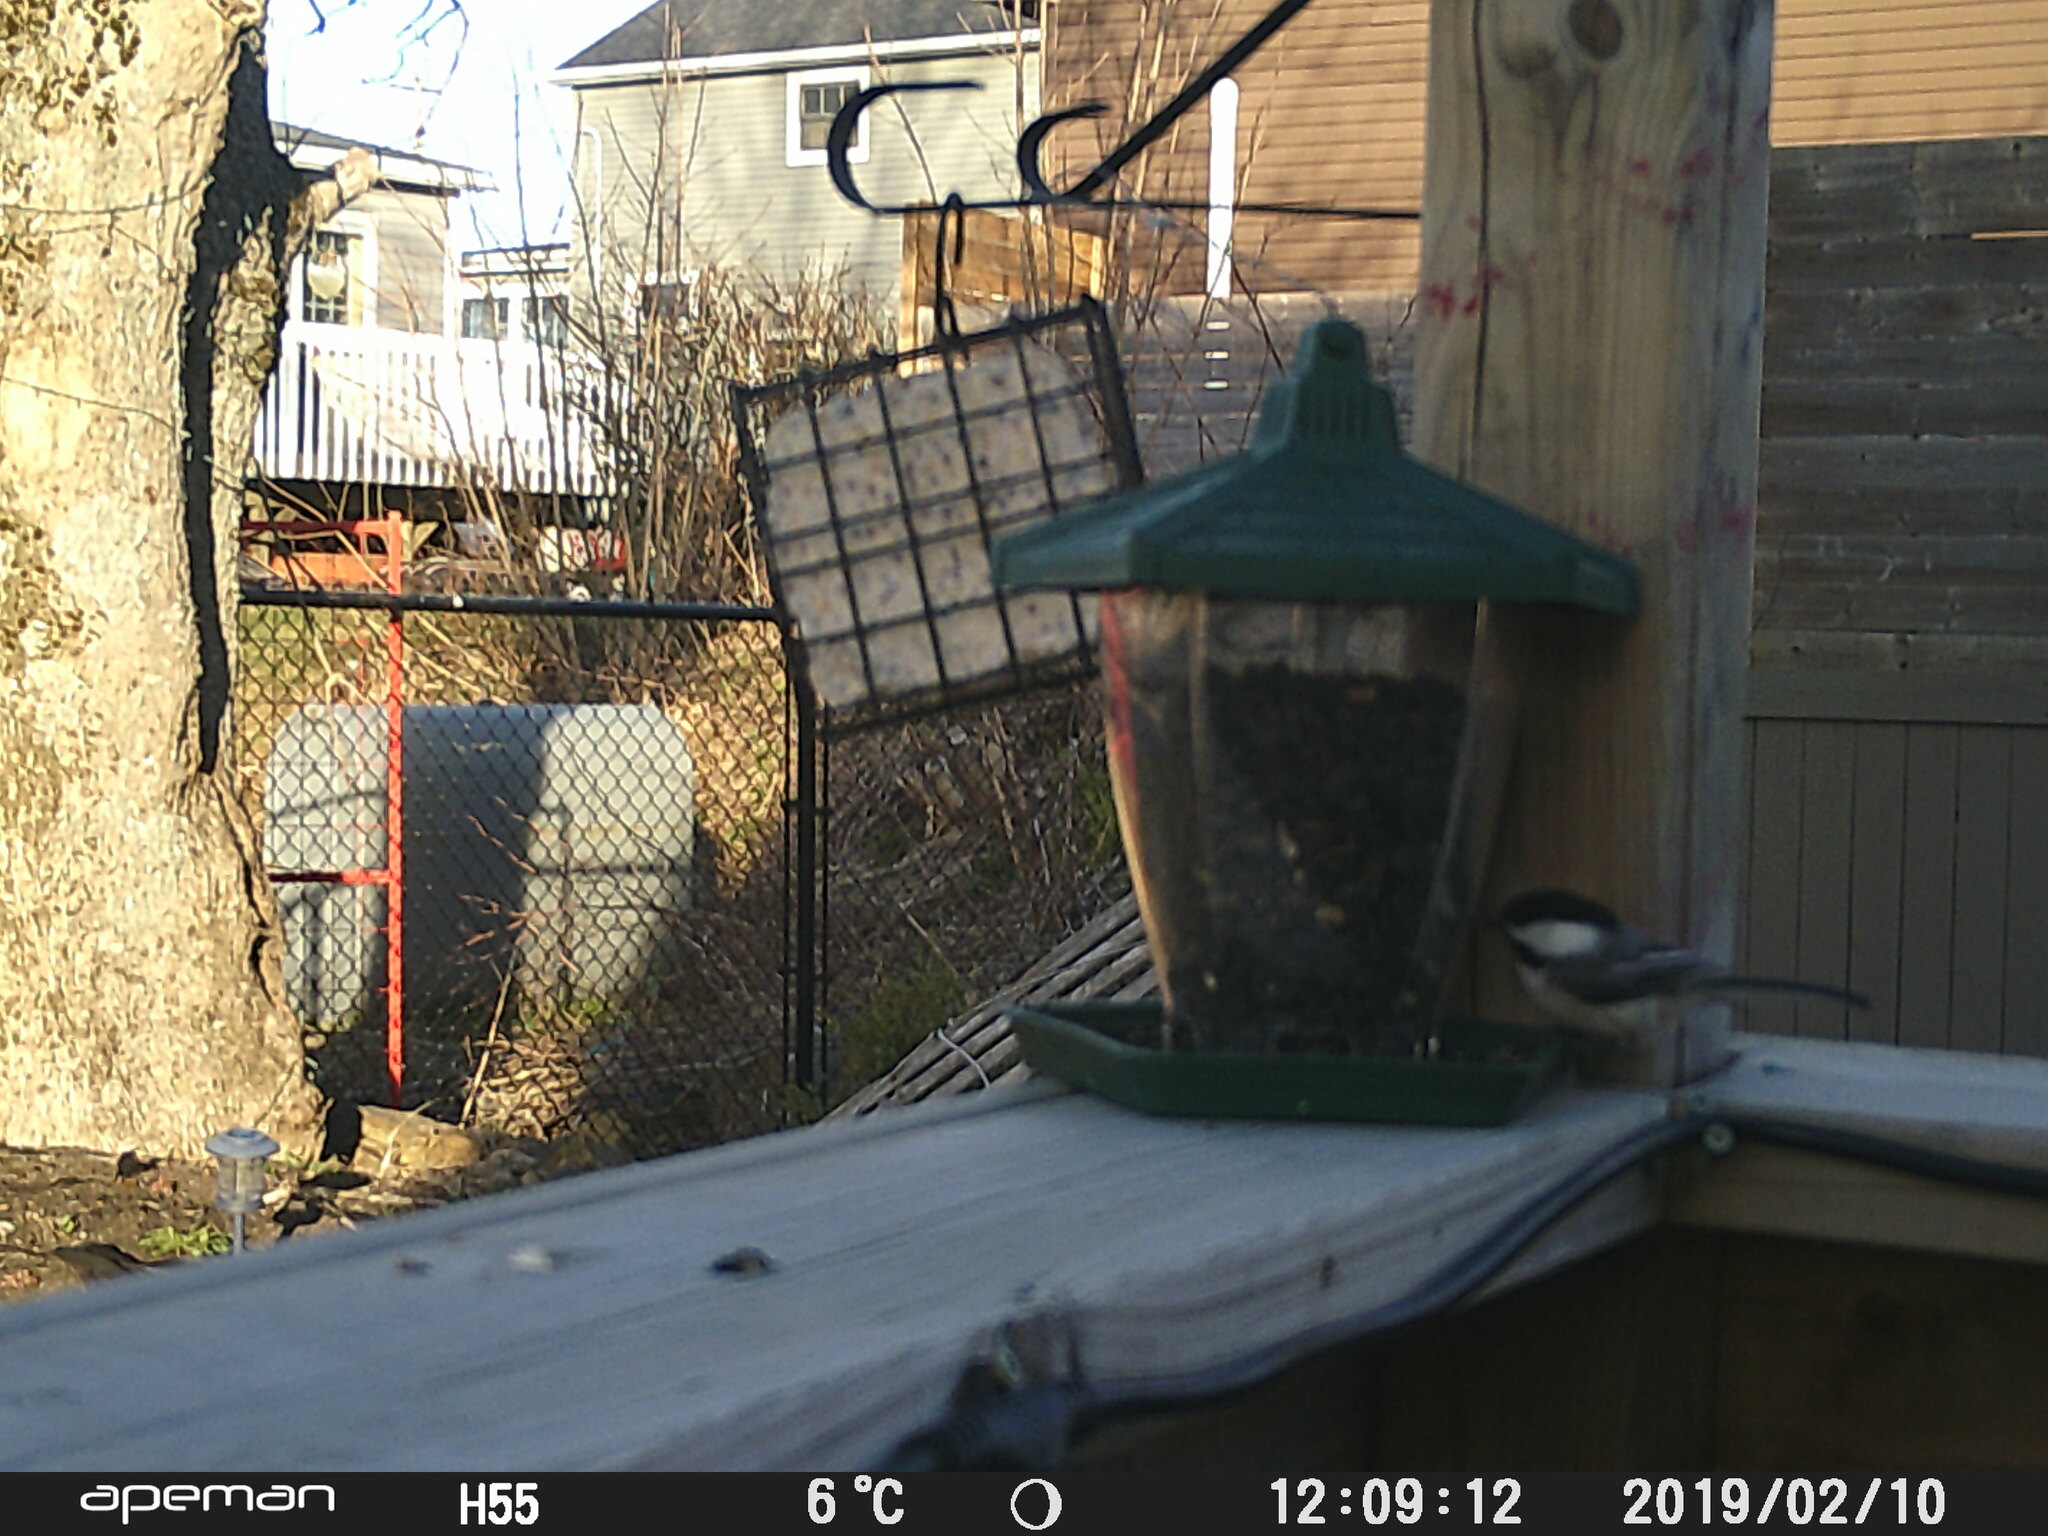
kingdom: Animalia
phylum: Chordata
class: Aves
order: Passeriformes
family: Paridae
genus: Poecile
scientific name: Poecile atricapillus
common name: Black-capped chickadee
